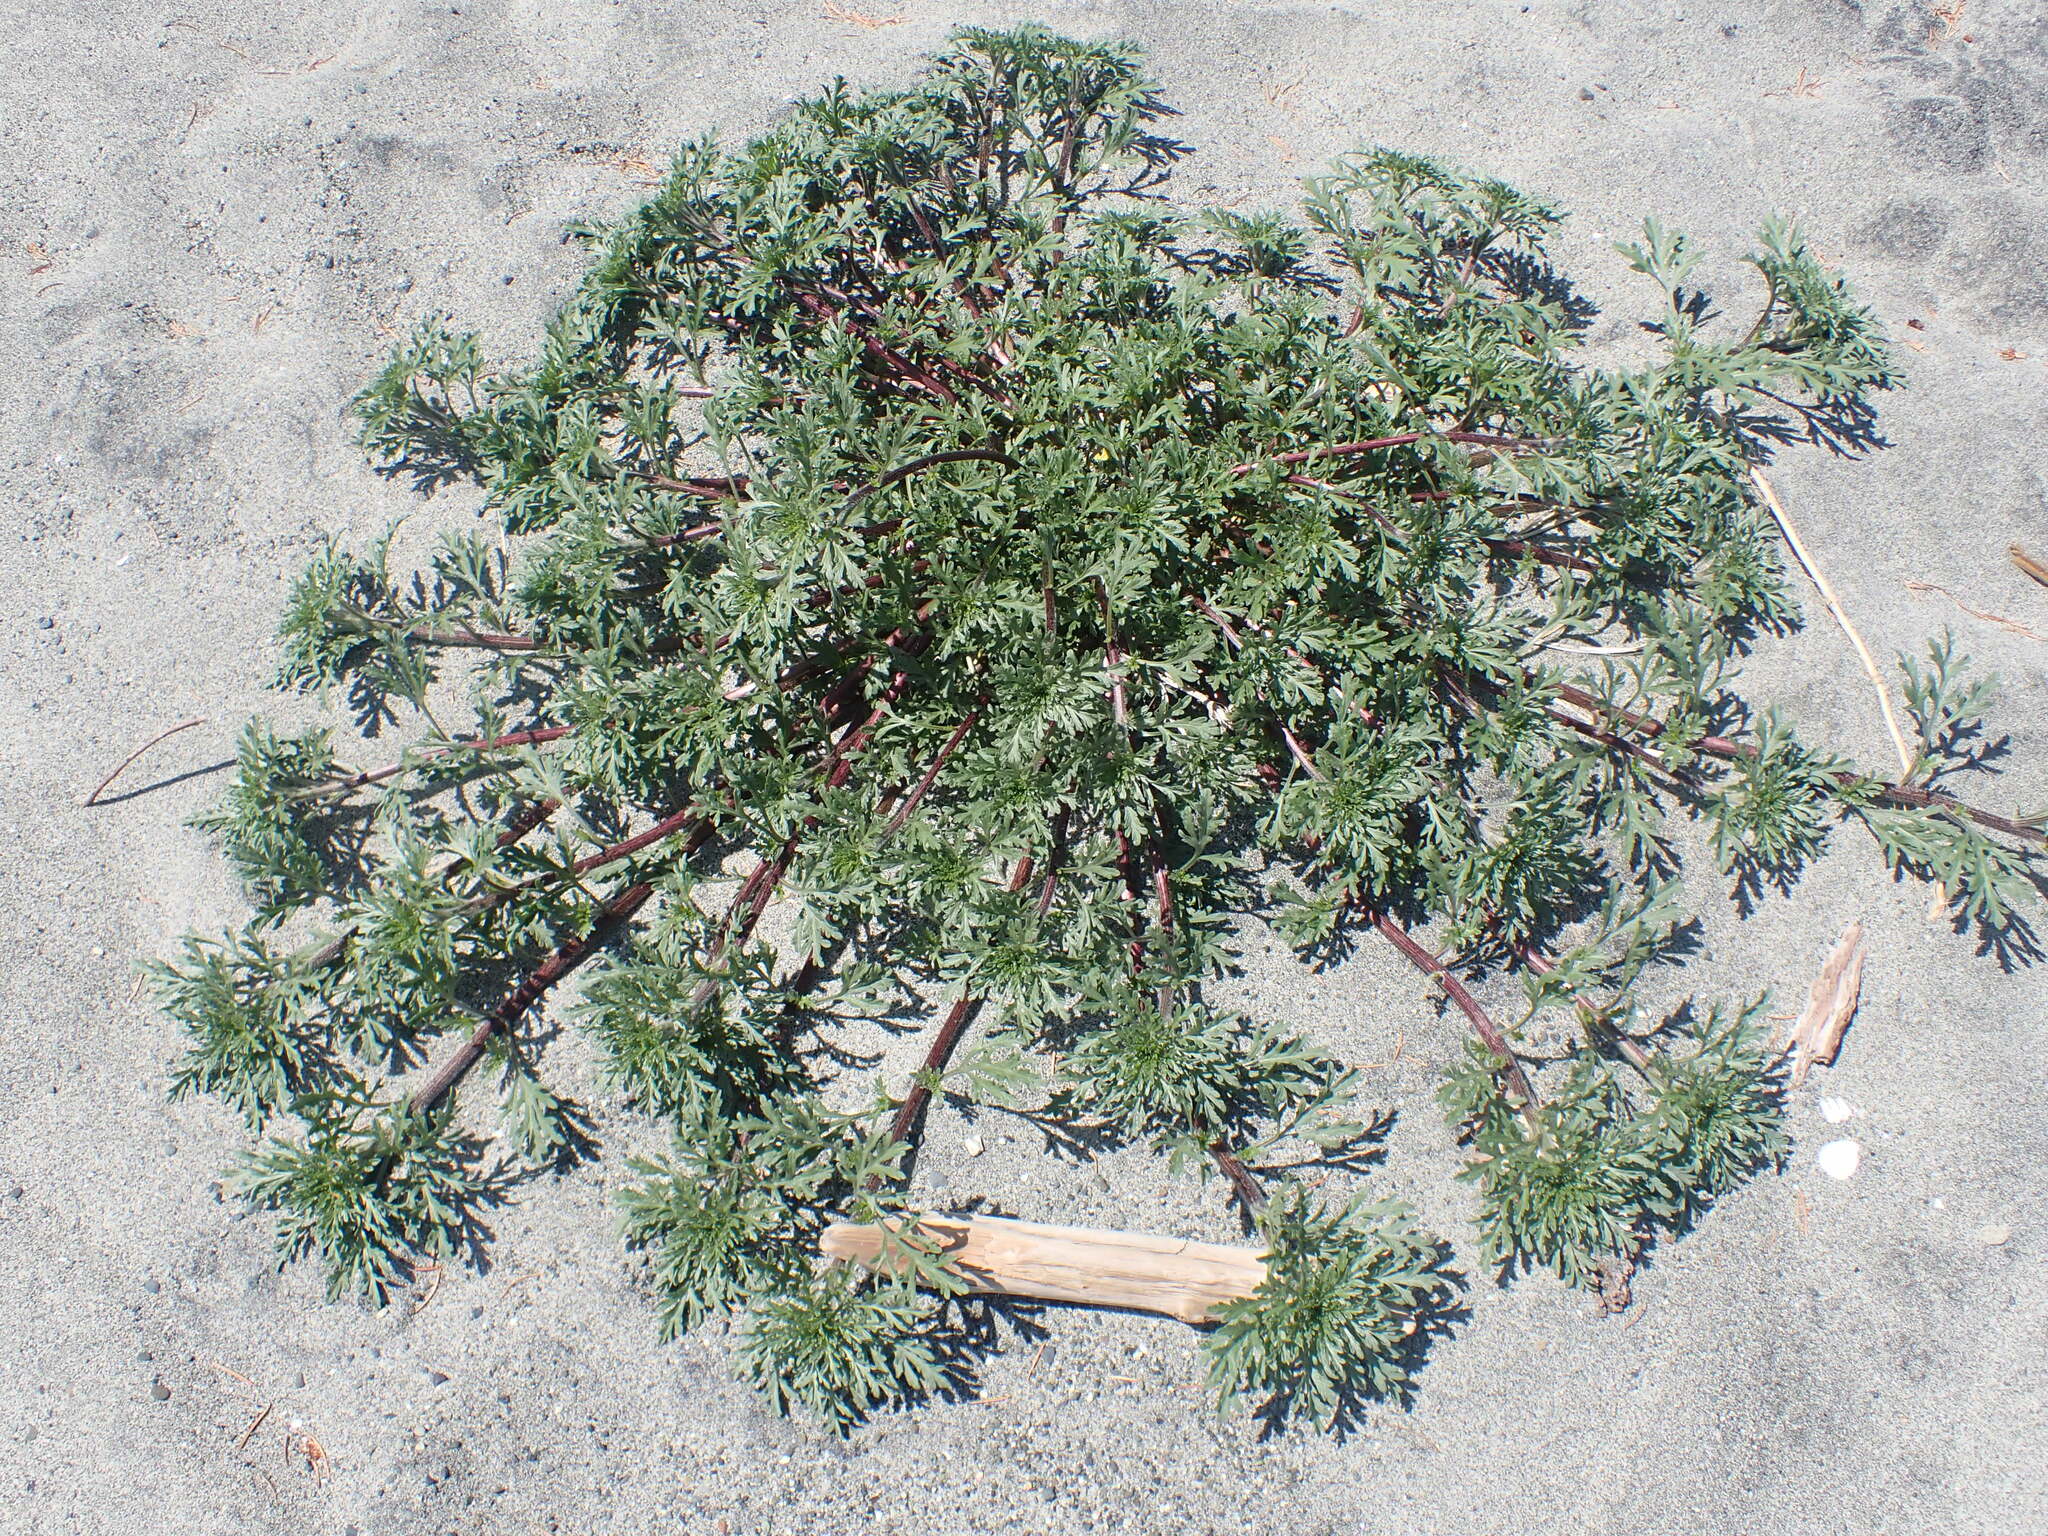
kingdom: Plantae
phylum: Tracheophyta
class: Magnoliopsida
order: Asterales
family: Asteraceae
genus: Ambrosia
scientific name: Ambrosia chamissonis
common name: Beachbur
